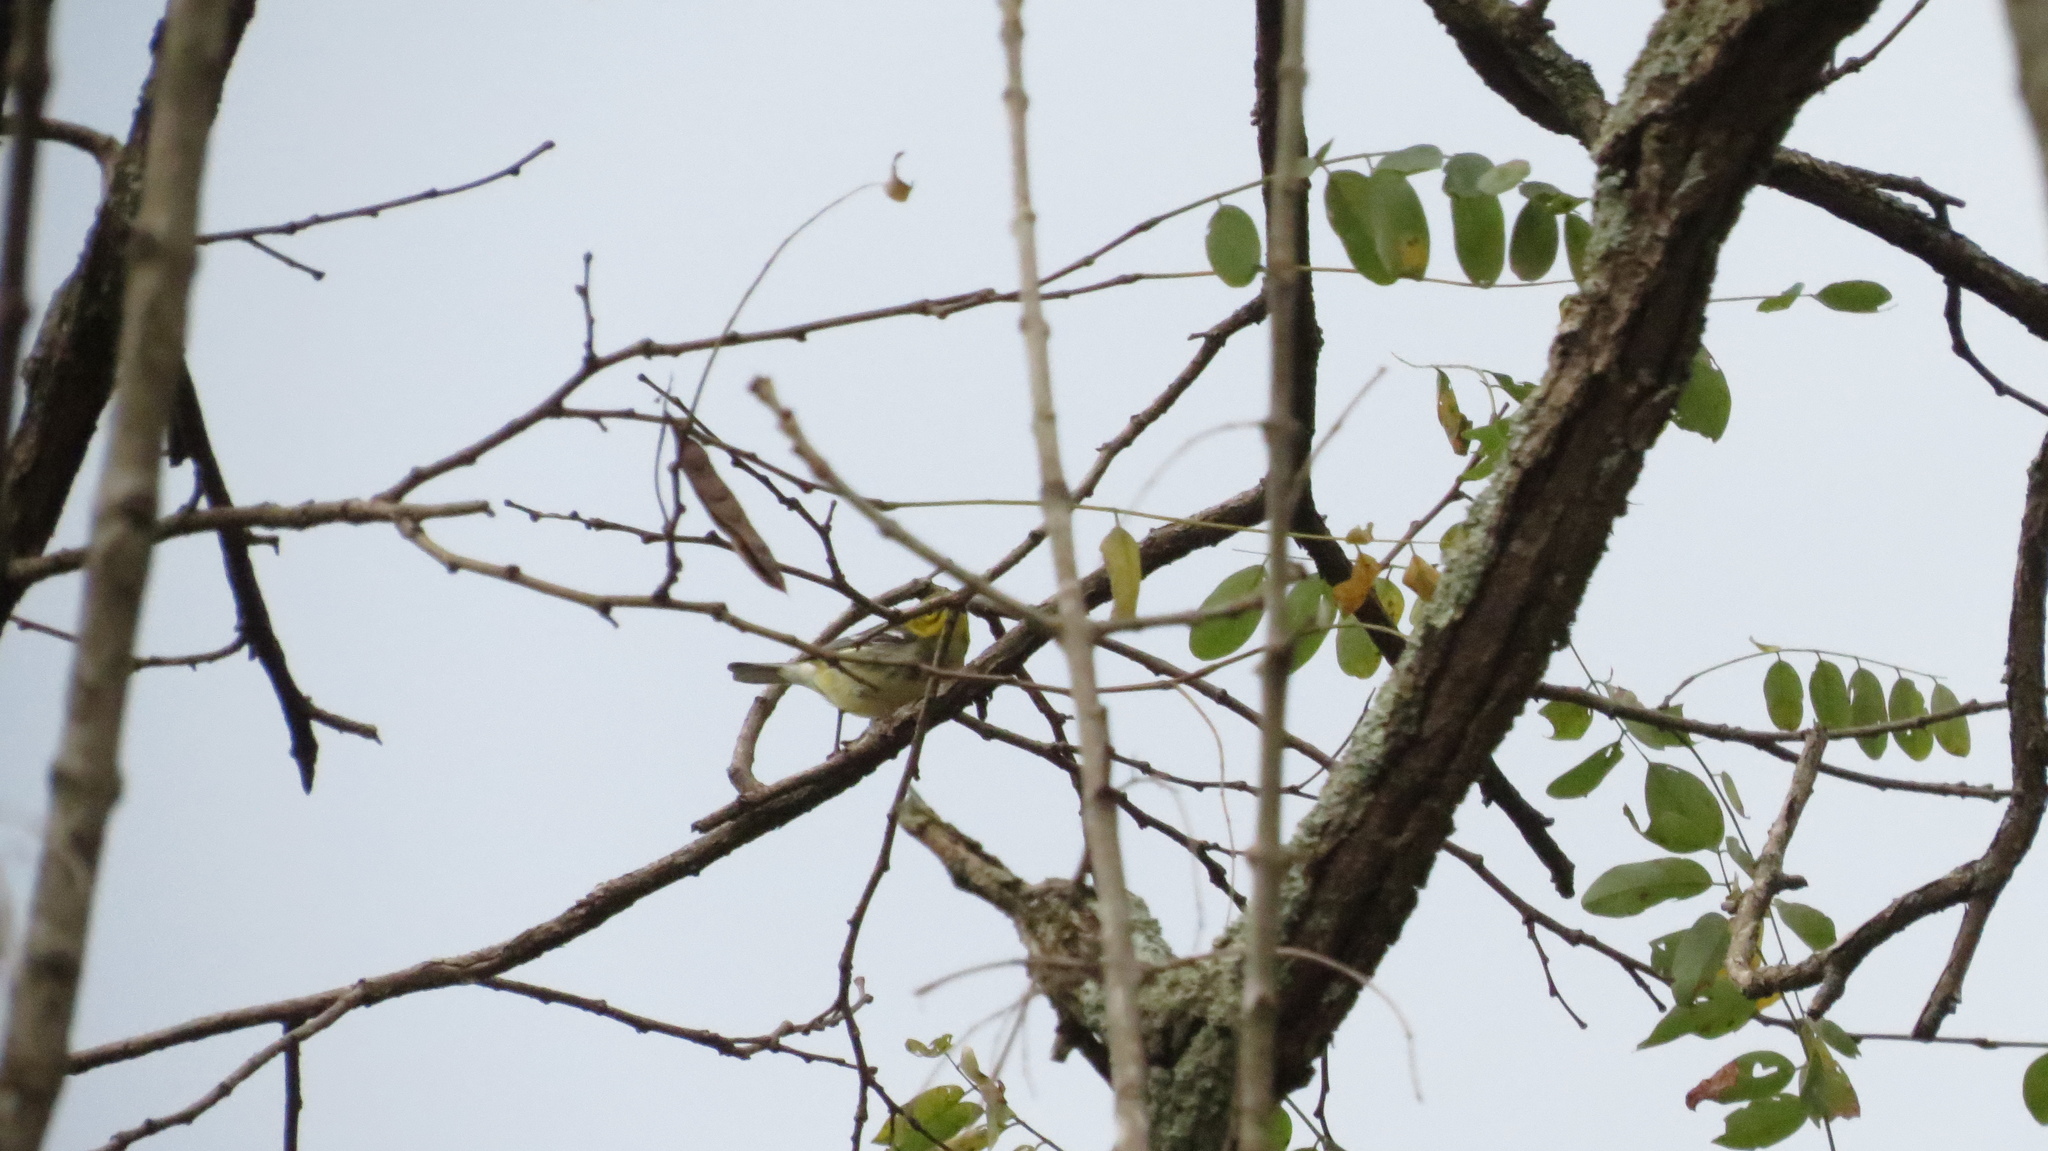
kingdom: Animalia
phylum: Chordata
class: Aves
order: Passeriformes
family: Parulidae
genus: Setophaga
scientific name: Setophaga virens
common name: Black-throated green warbler
